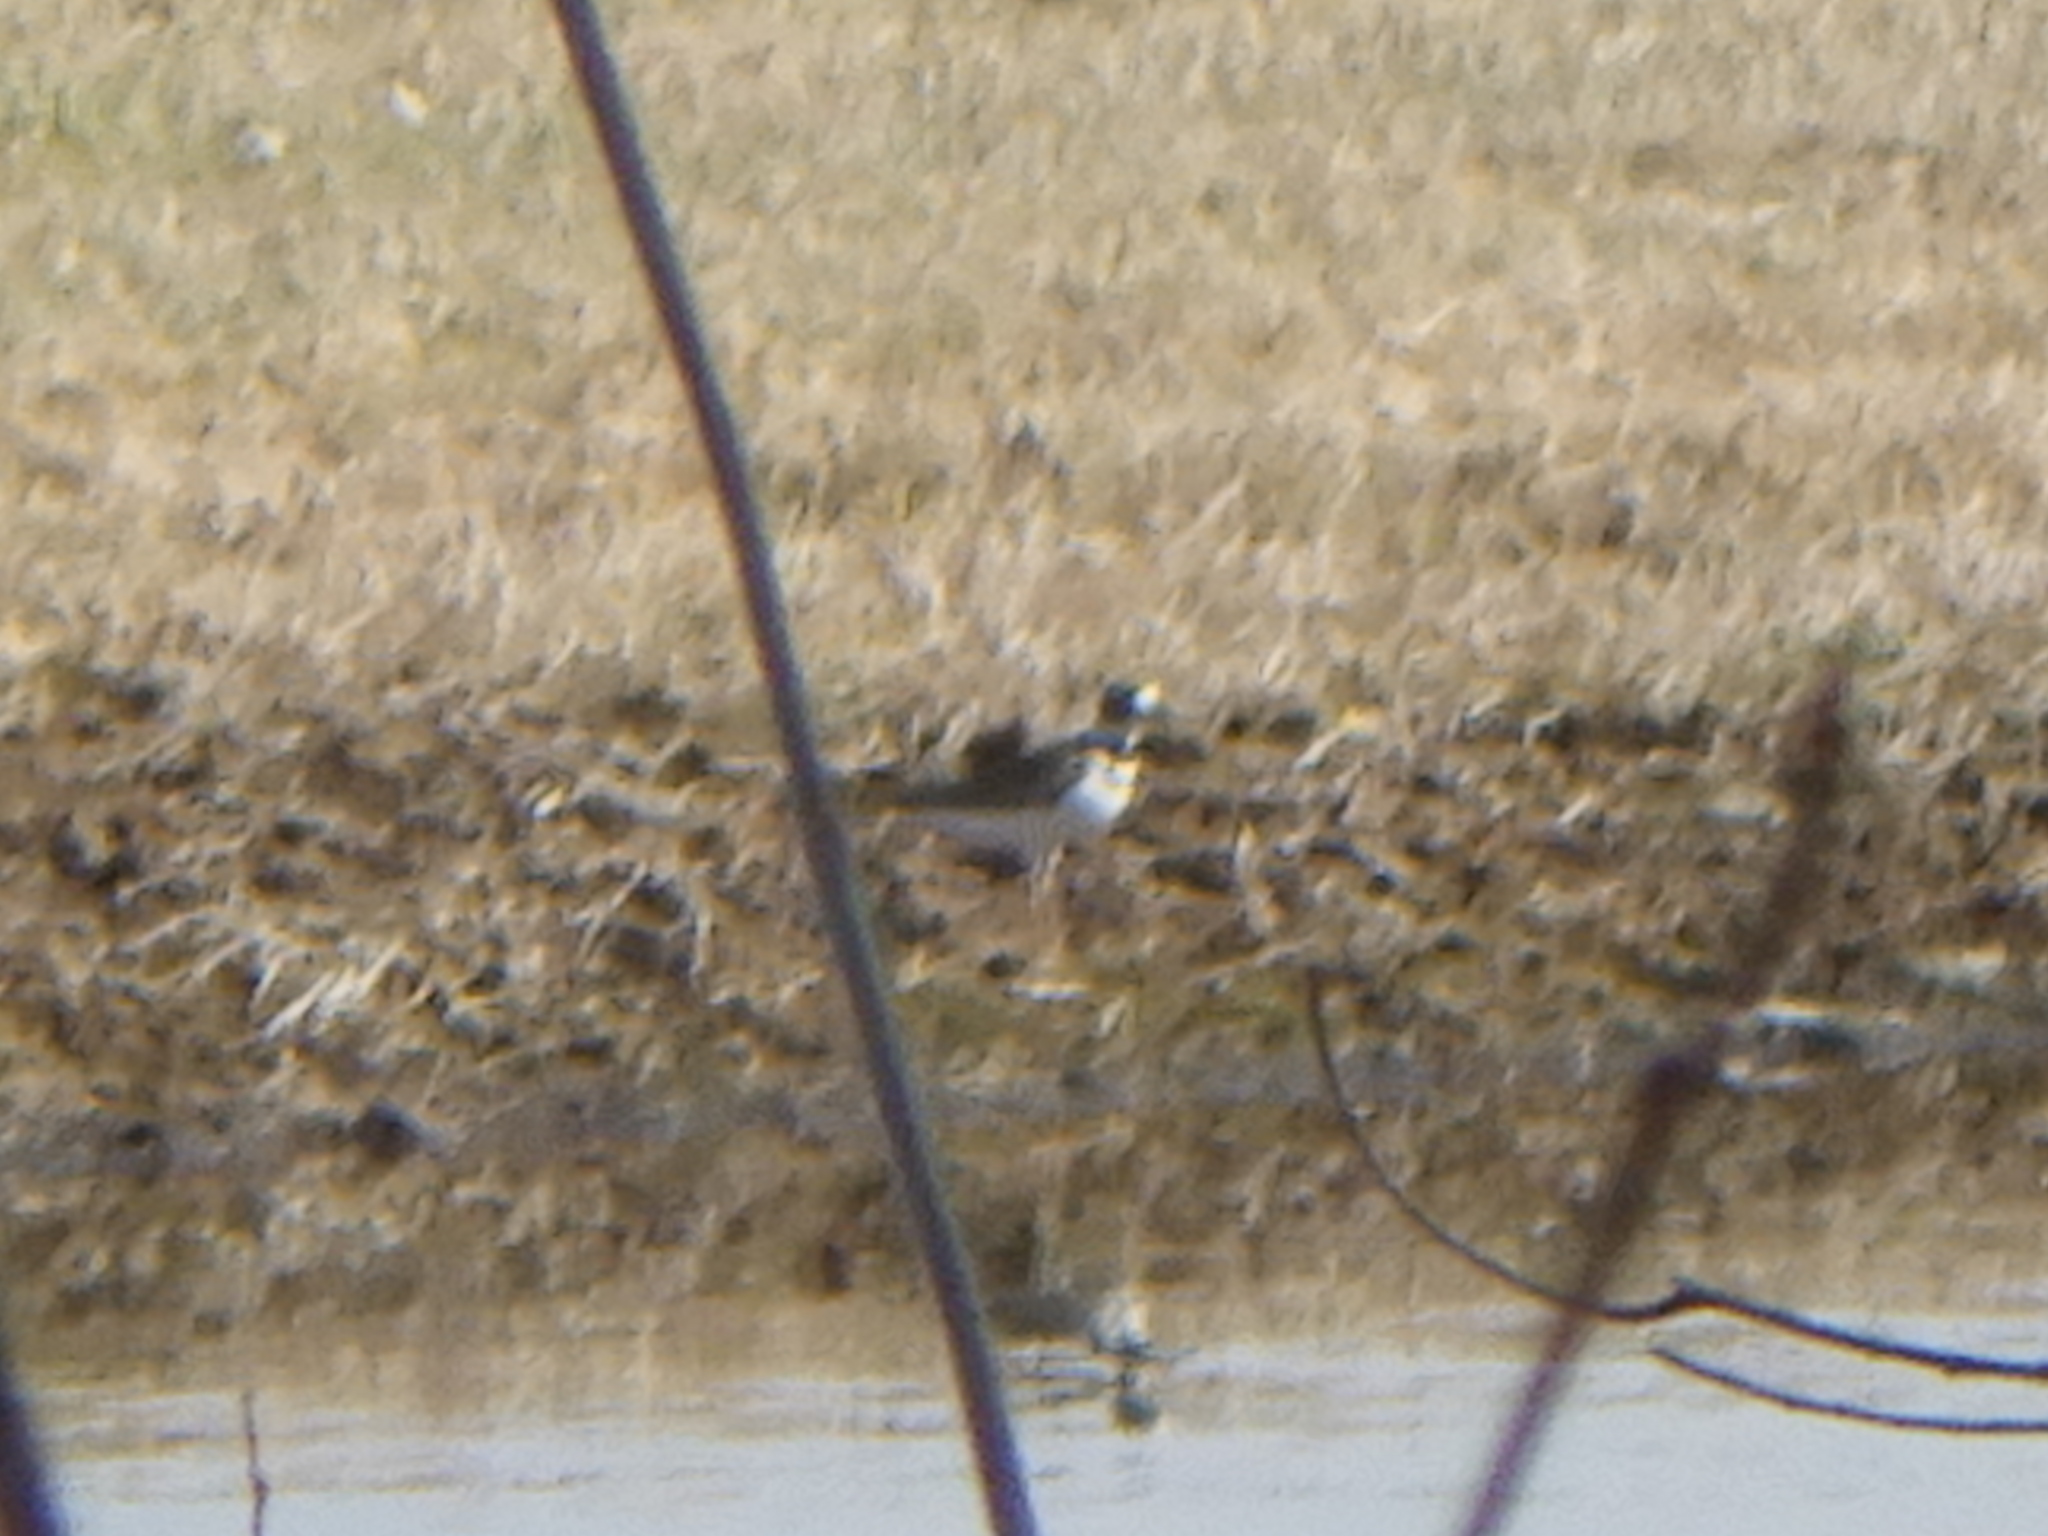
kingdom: Animalia
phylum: Chordata
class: Aves
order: Charadriiformes
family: Charadriidae
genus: Charadrius
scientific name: Charadrius vociferus
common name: Killdeer
